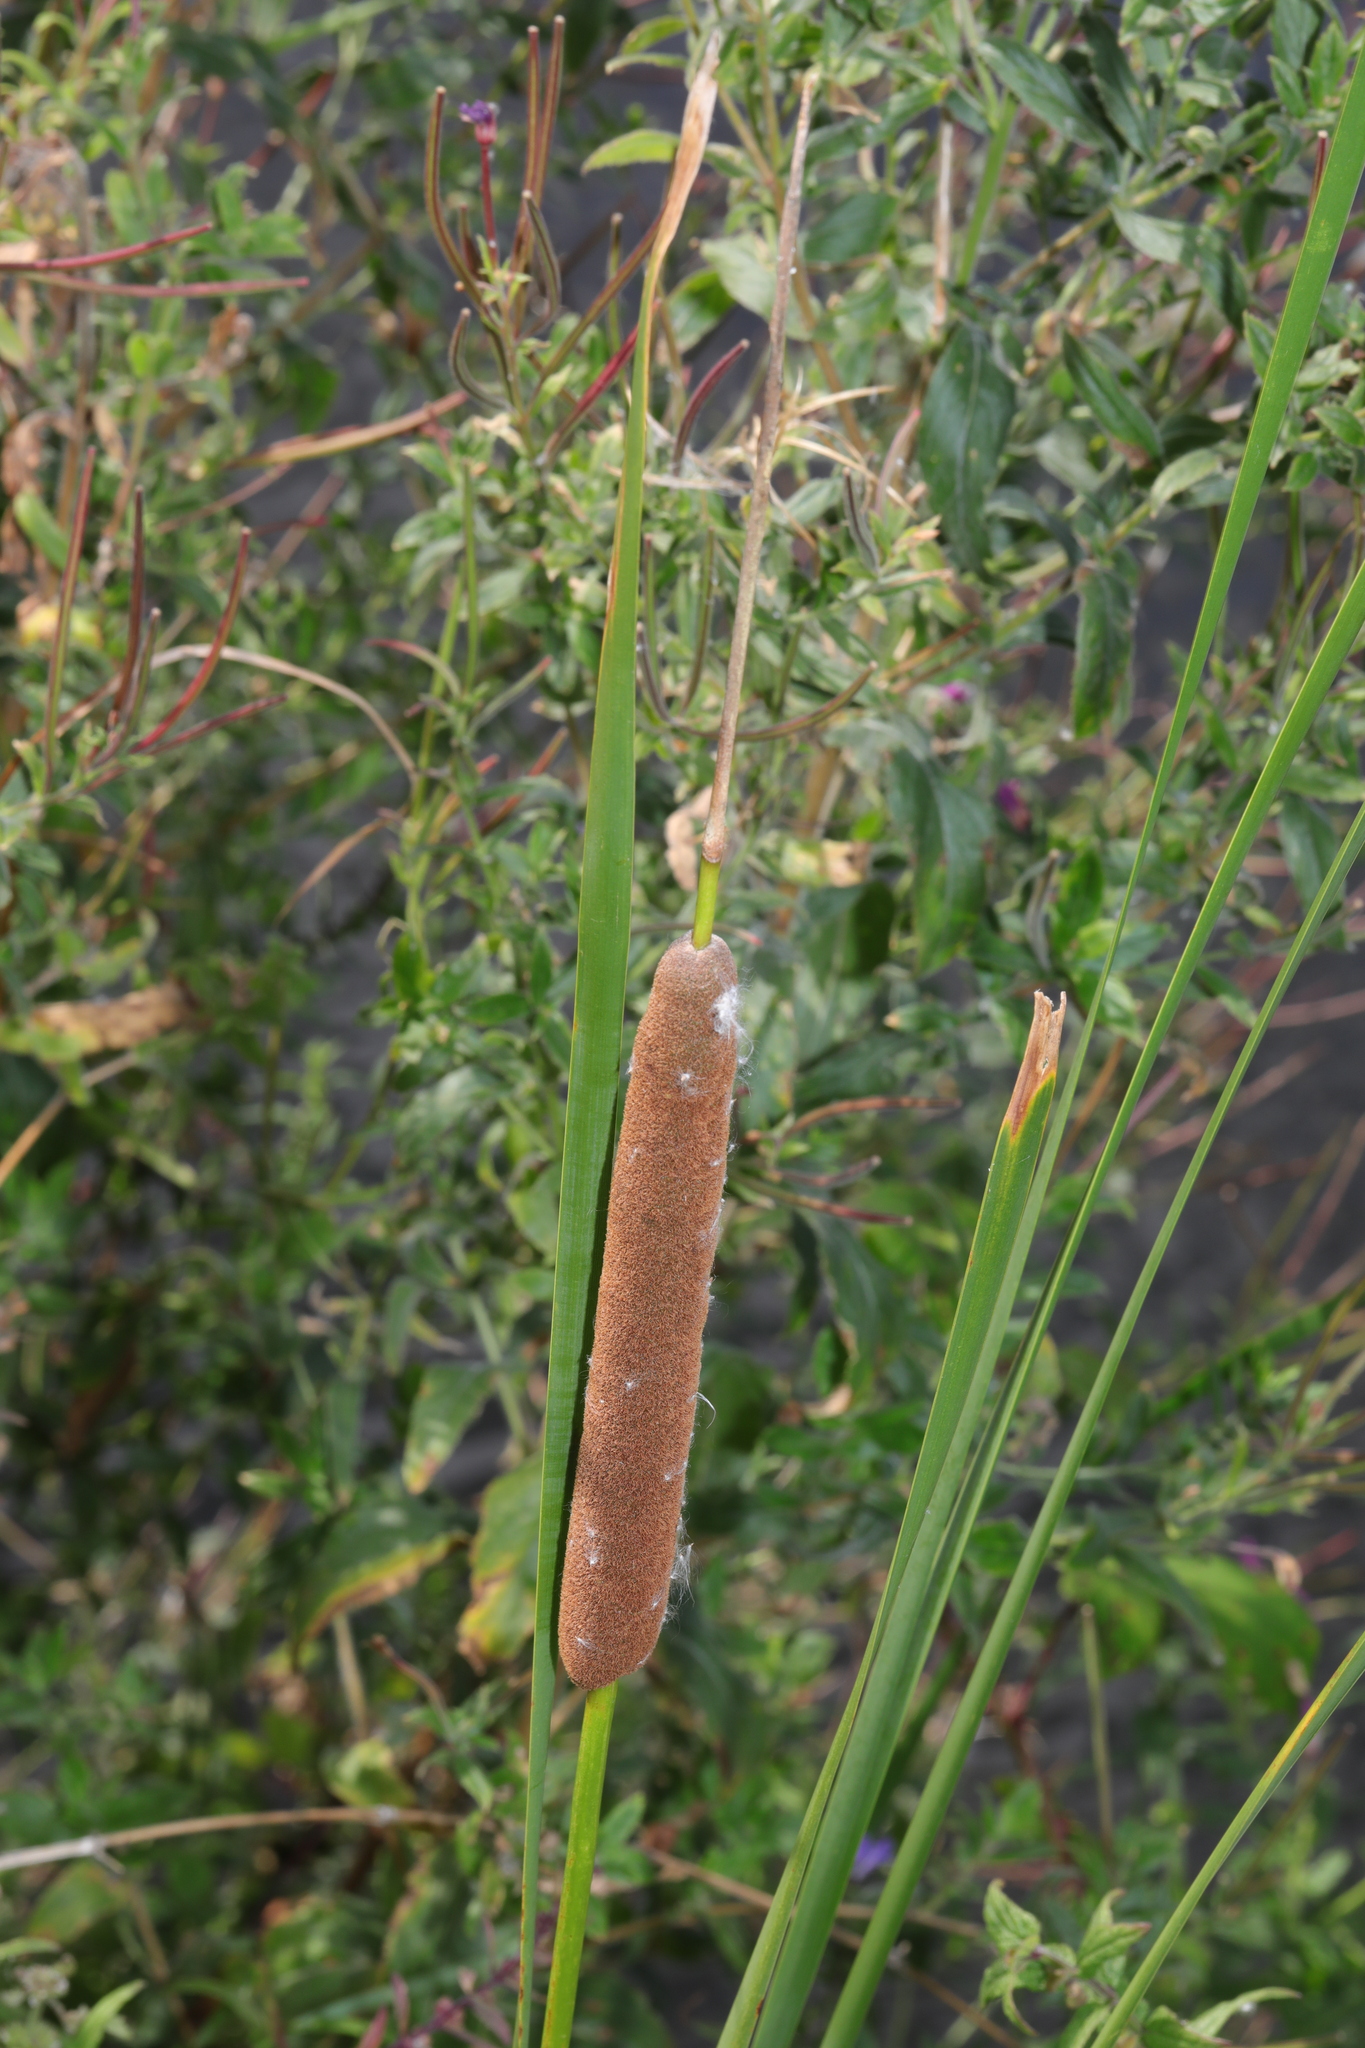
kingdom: Plantae
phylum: Tracheophyta
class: Liliopsida
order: Poales
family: Typhaceae
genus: Typha
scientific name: Typha angustifolia
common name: Lesser bulrush
